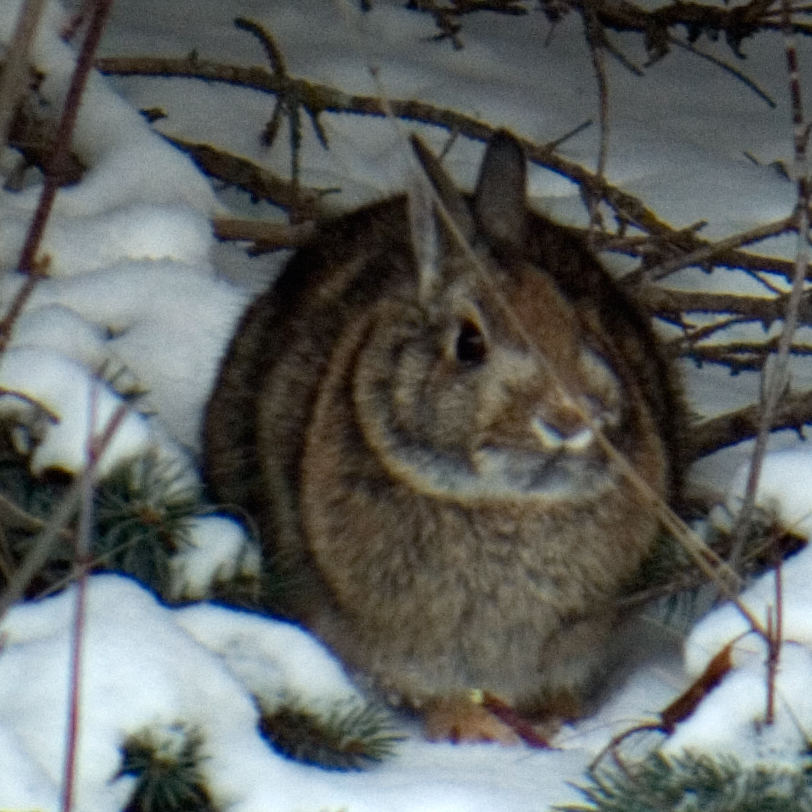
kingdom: Animalia
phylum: Chordata
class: Mammalia
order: Lagomorpha
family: Leporidae
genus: Sylvilagus
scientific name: Sylvilagus floridanus
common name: Eastern cottontail
